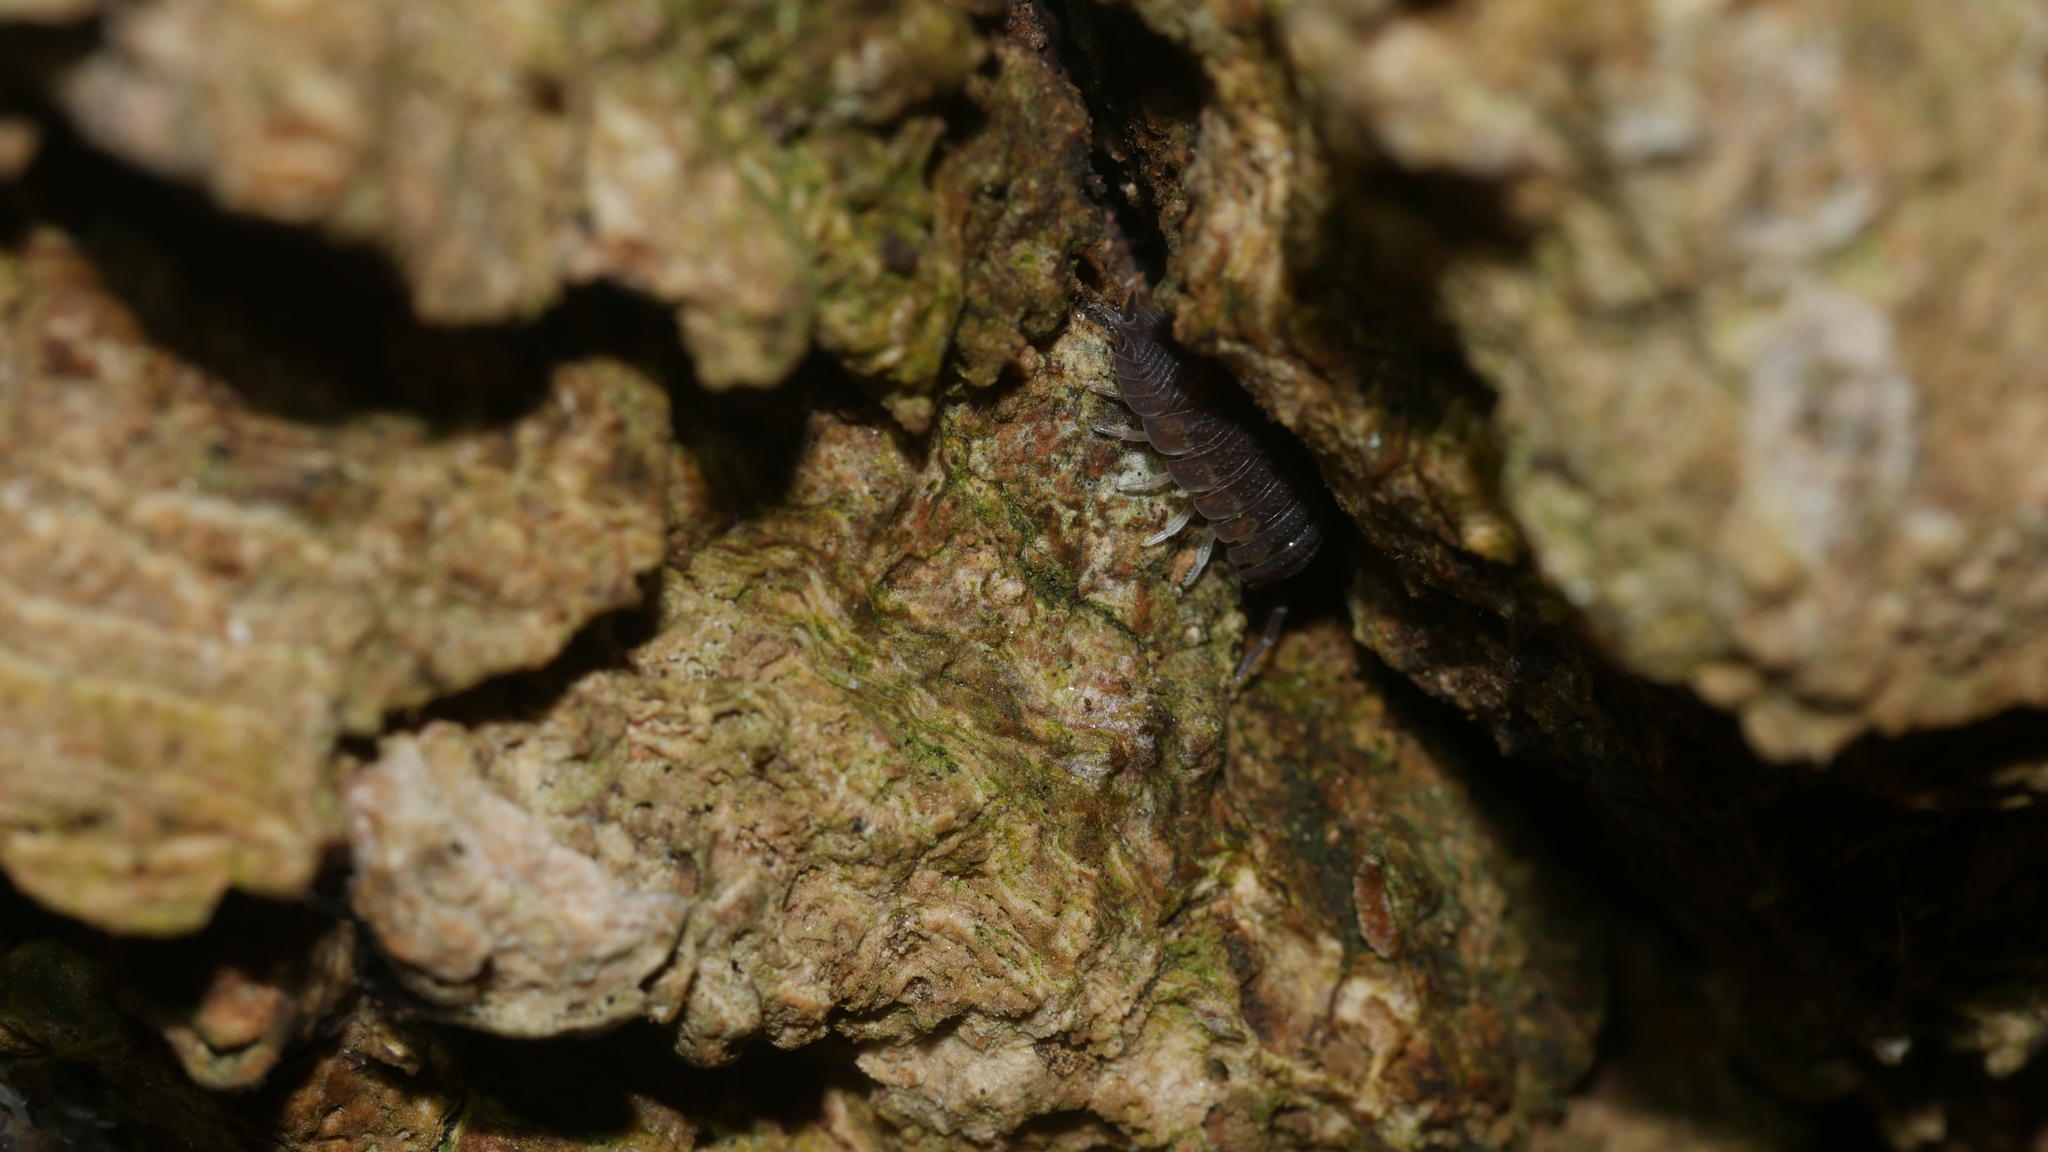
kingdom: Animalia
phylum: Arthropoda
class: Malacostraca
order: Isopoda
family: Porcellionidae
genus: Porcellio
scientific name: Porcellio scaber
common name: Common rough woodlouse
